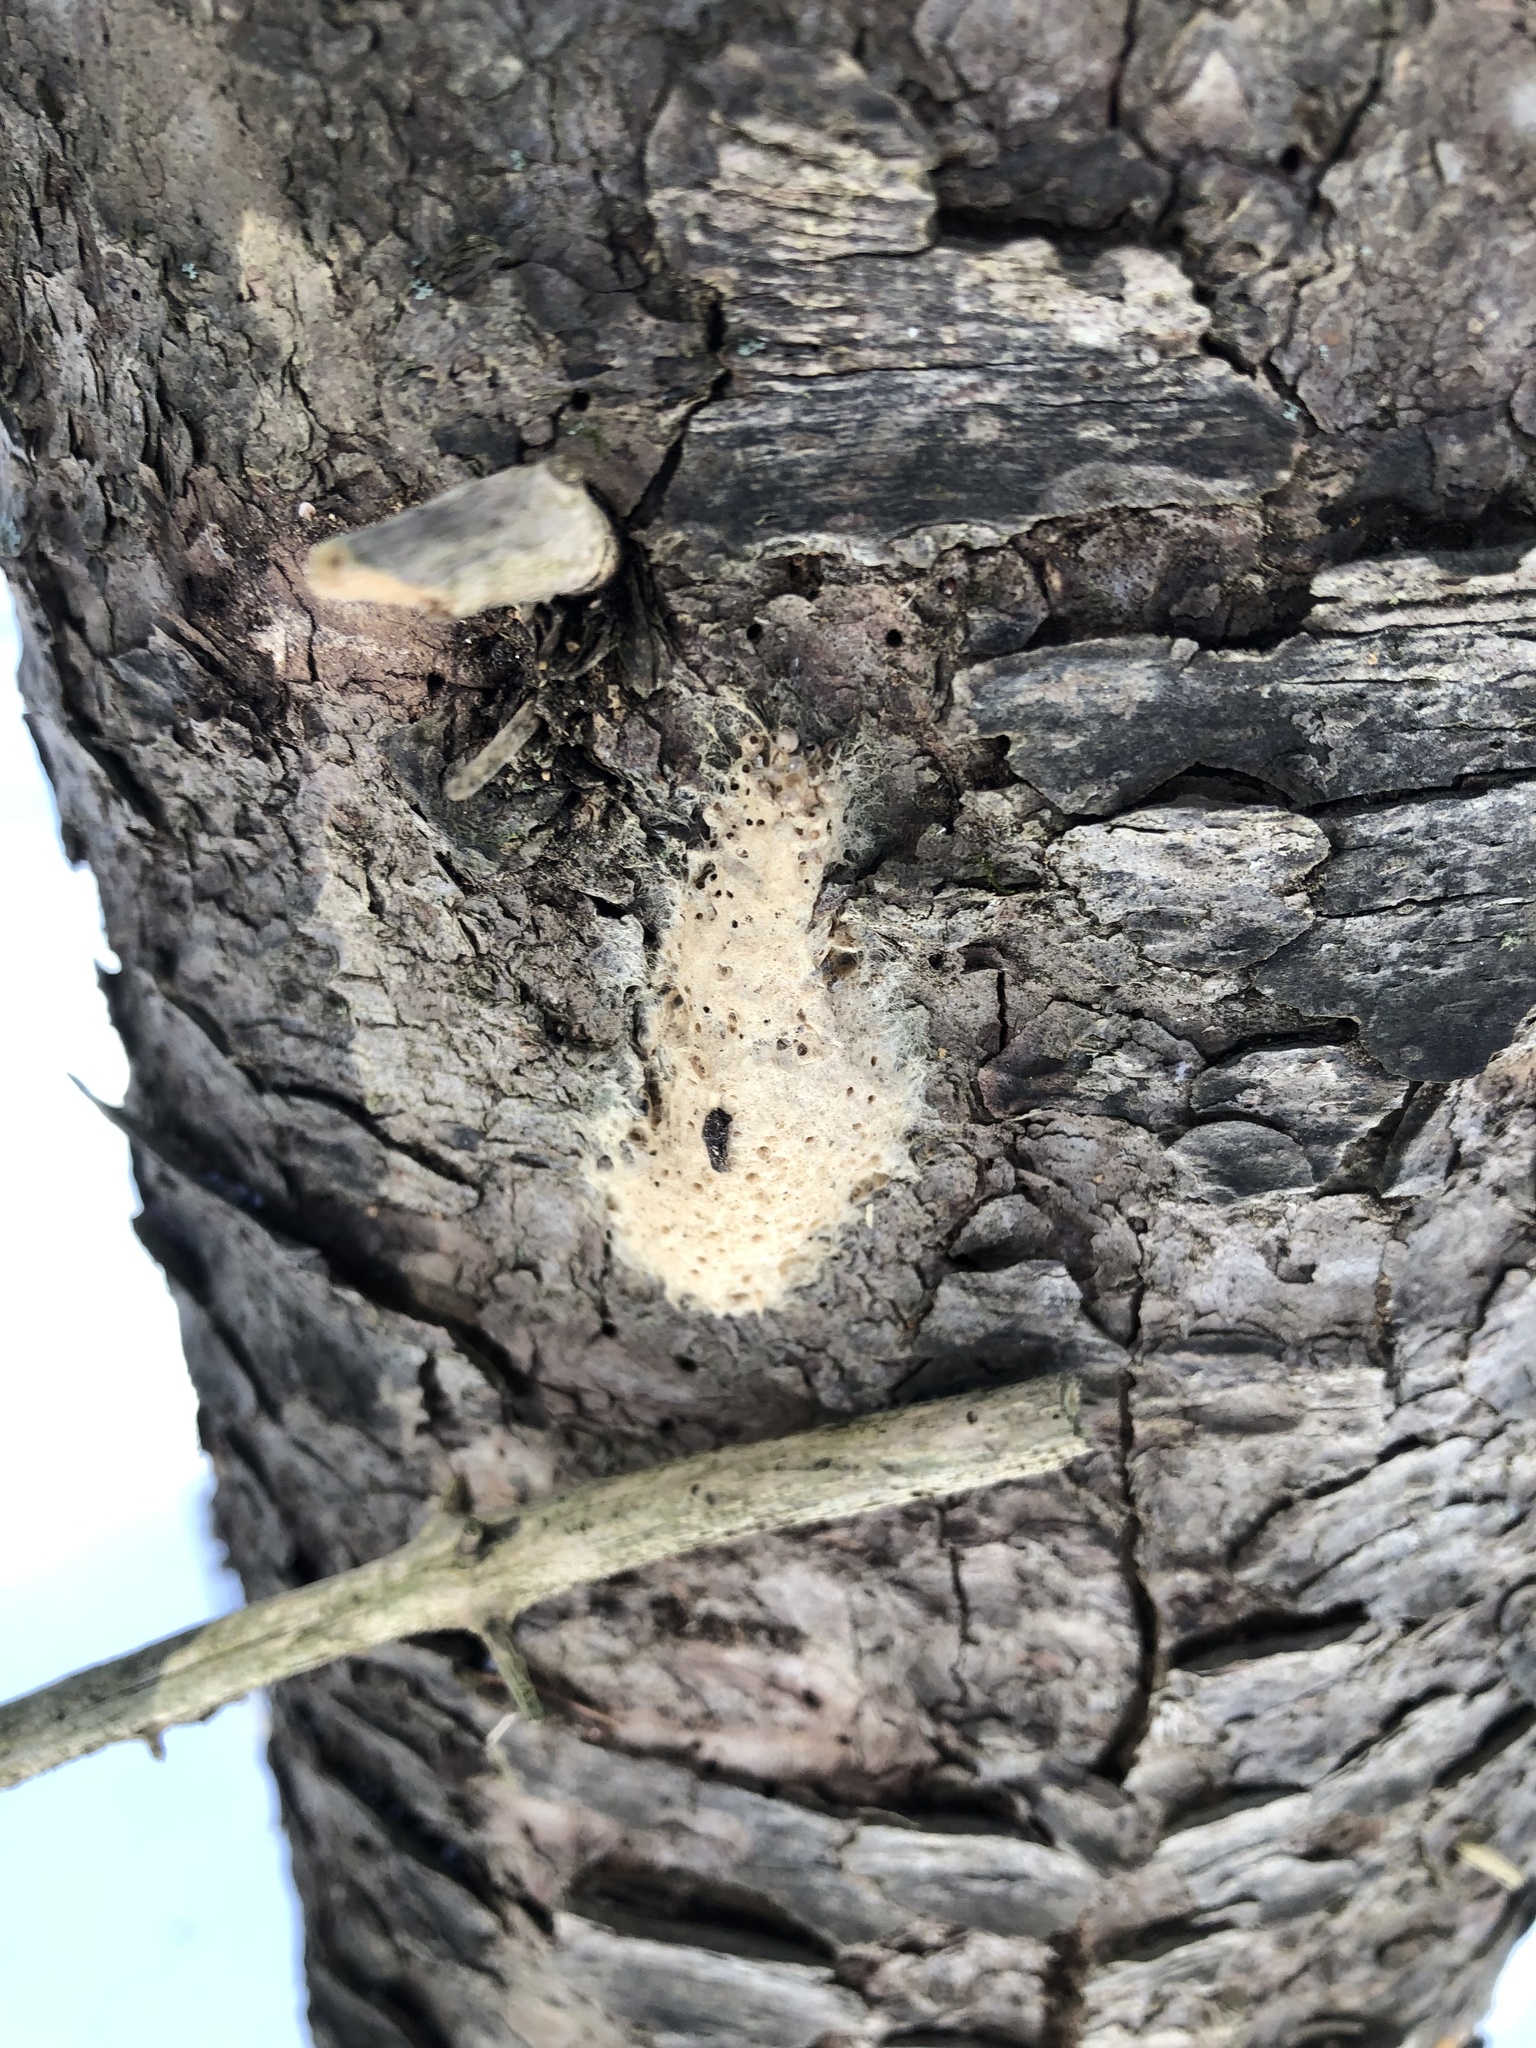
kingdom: Animalia
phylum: Arthropoda
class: Insecta
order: Lepidoptera
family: Erebidae
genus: Lymantria
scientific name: Lymantria dispar
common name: Gypsy moth
